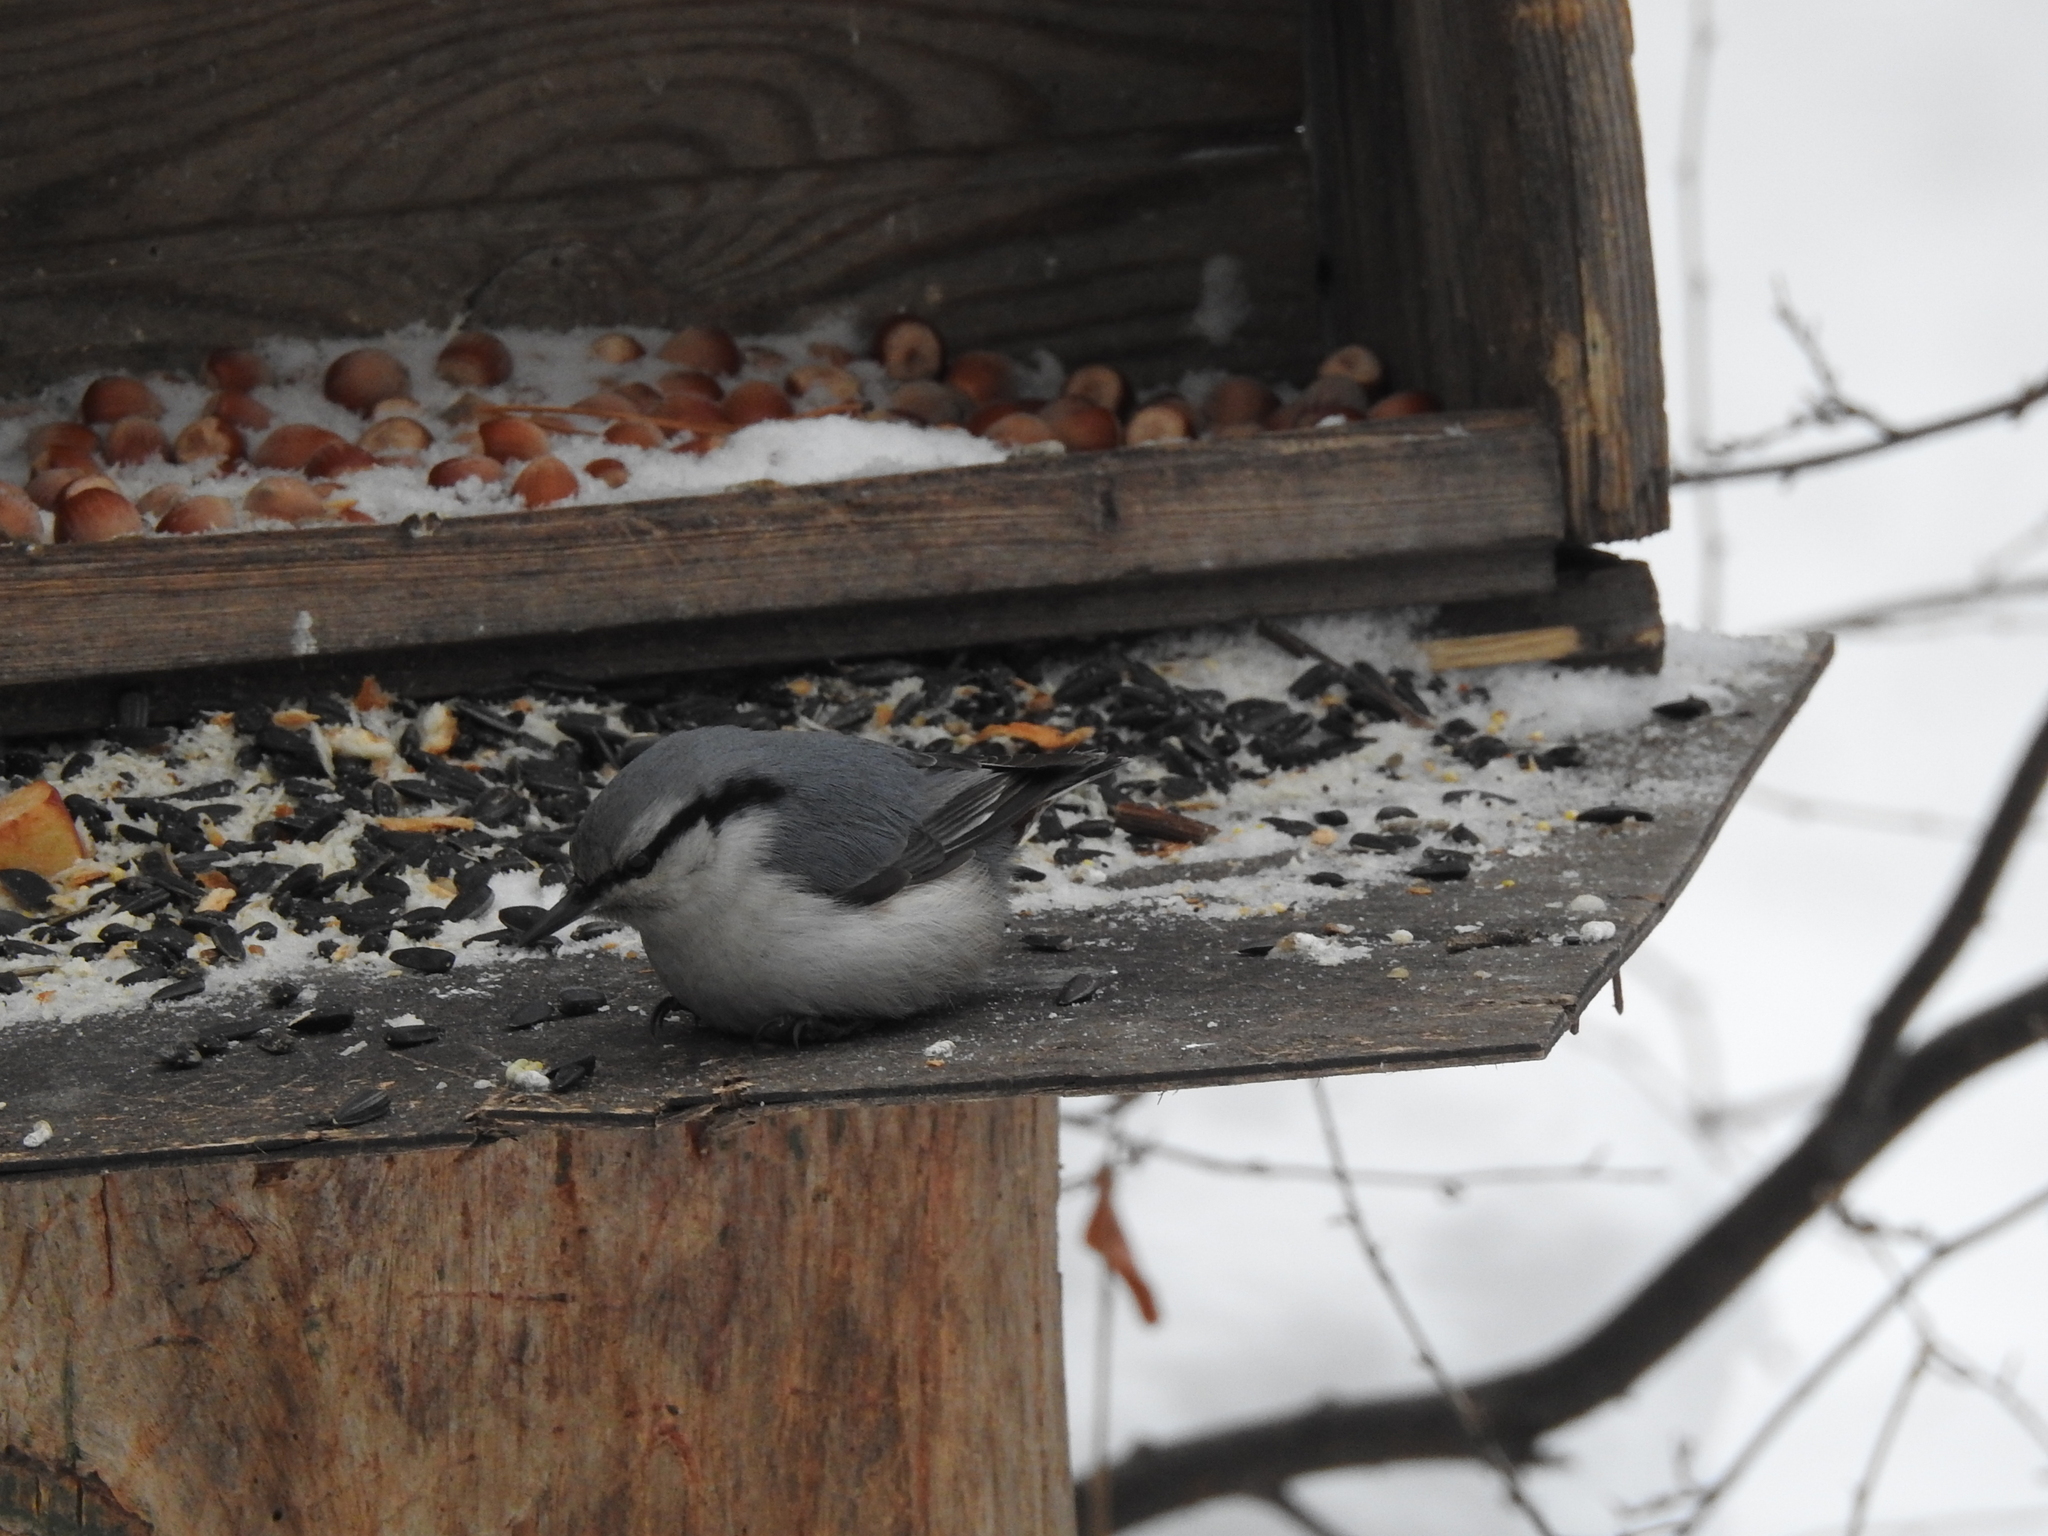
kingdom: Animalia
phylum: Chordata
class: Aves
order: Passeriformes
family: Sittidae
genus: Sitta
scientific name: Sitta europaea
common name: Eurasian nuthatch
